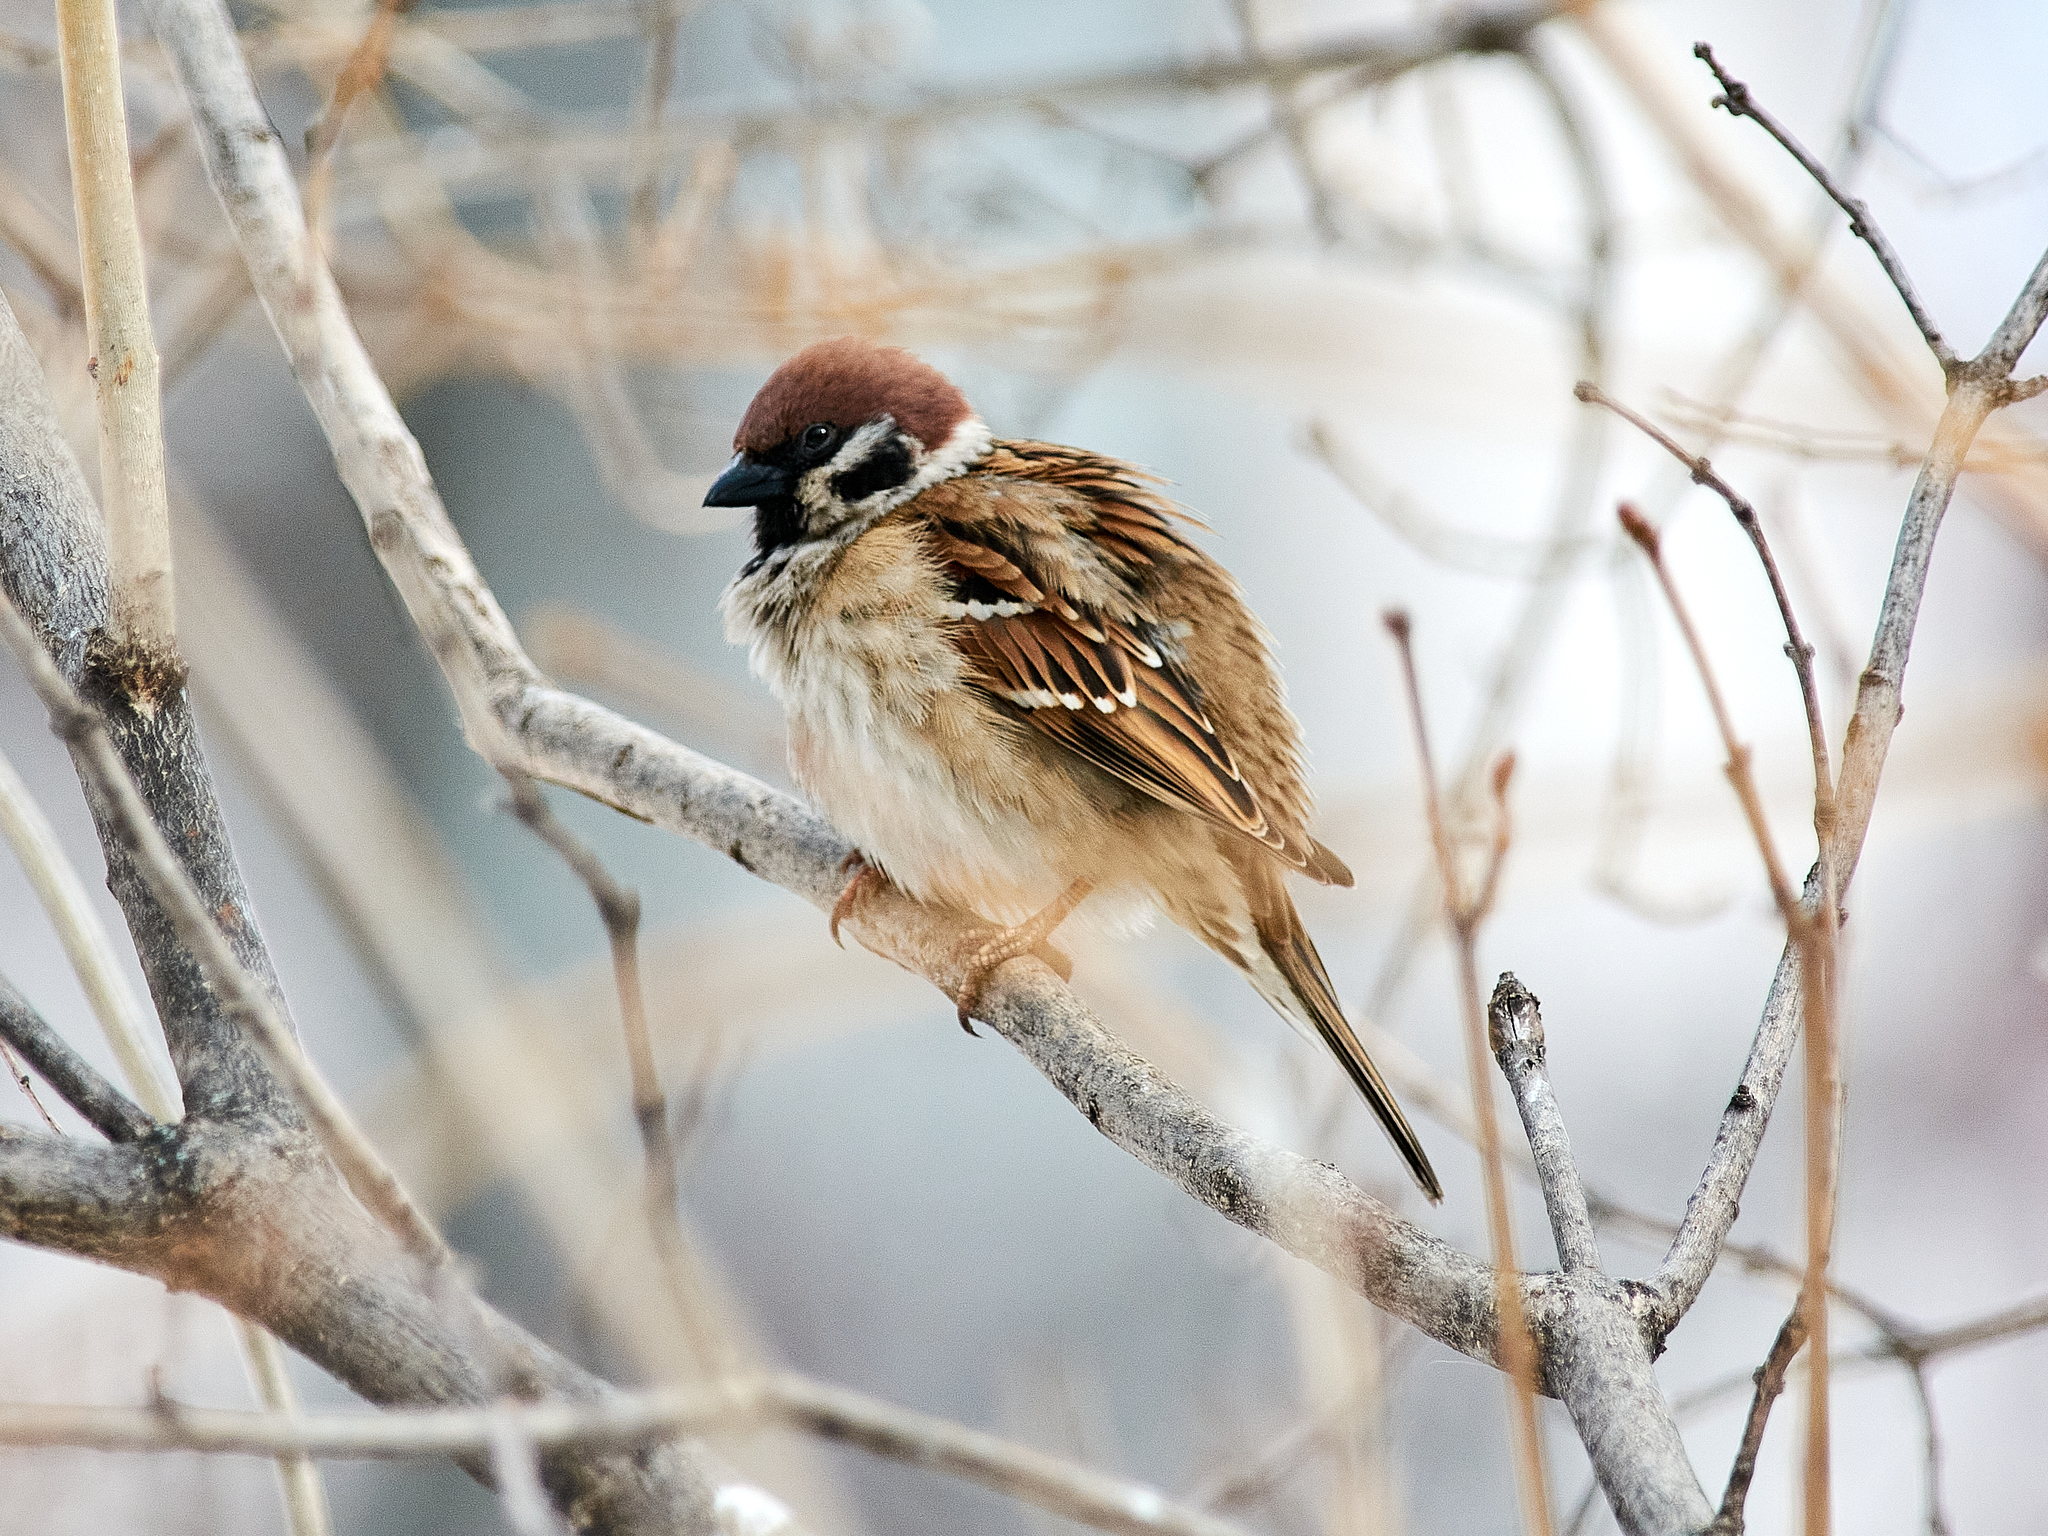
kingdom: Animalia
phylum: Chordata
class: Aves
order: Passeriformes
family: Passeridae
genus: Passer
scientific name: Passer montanus
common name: Eurasian tree sparrow
